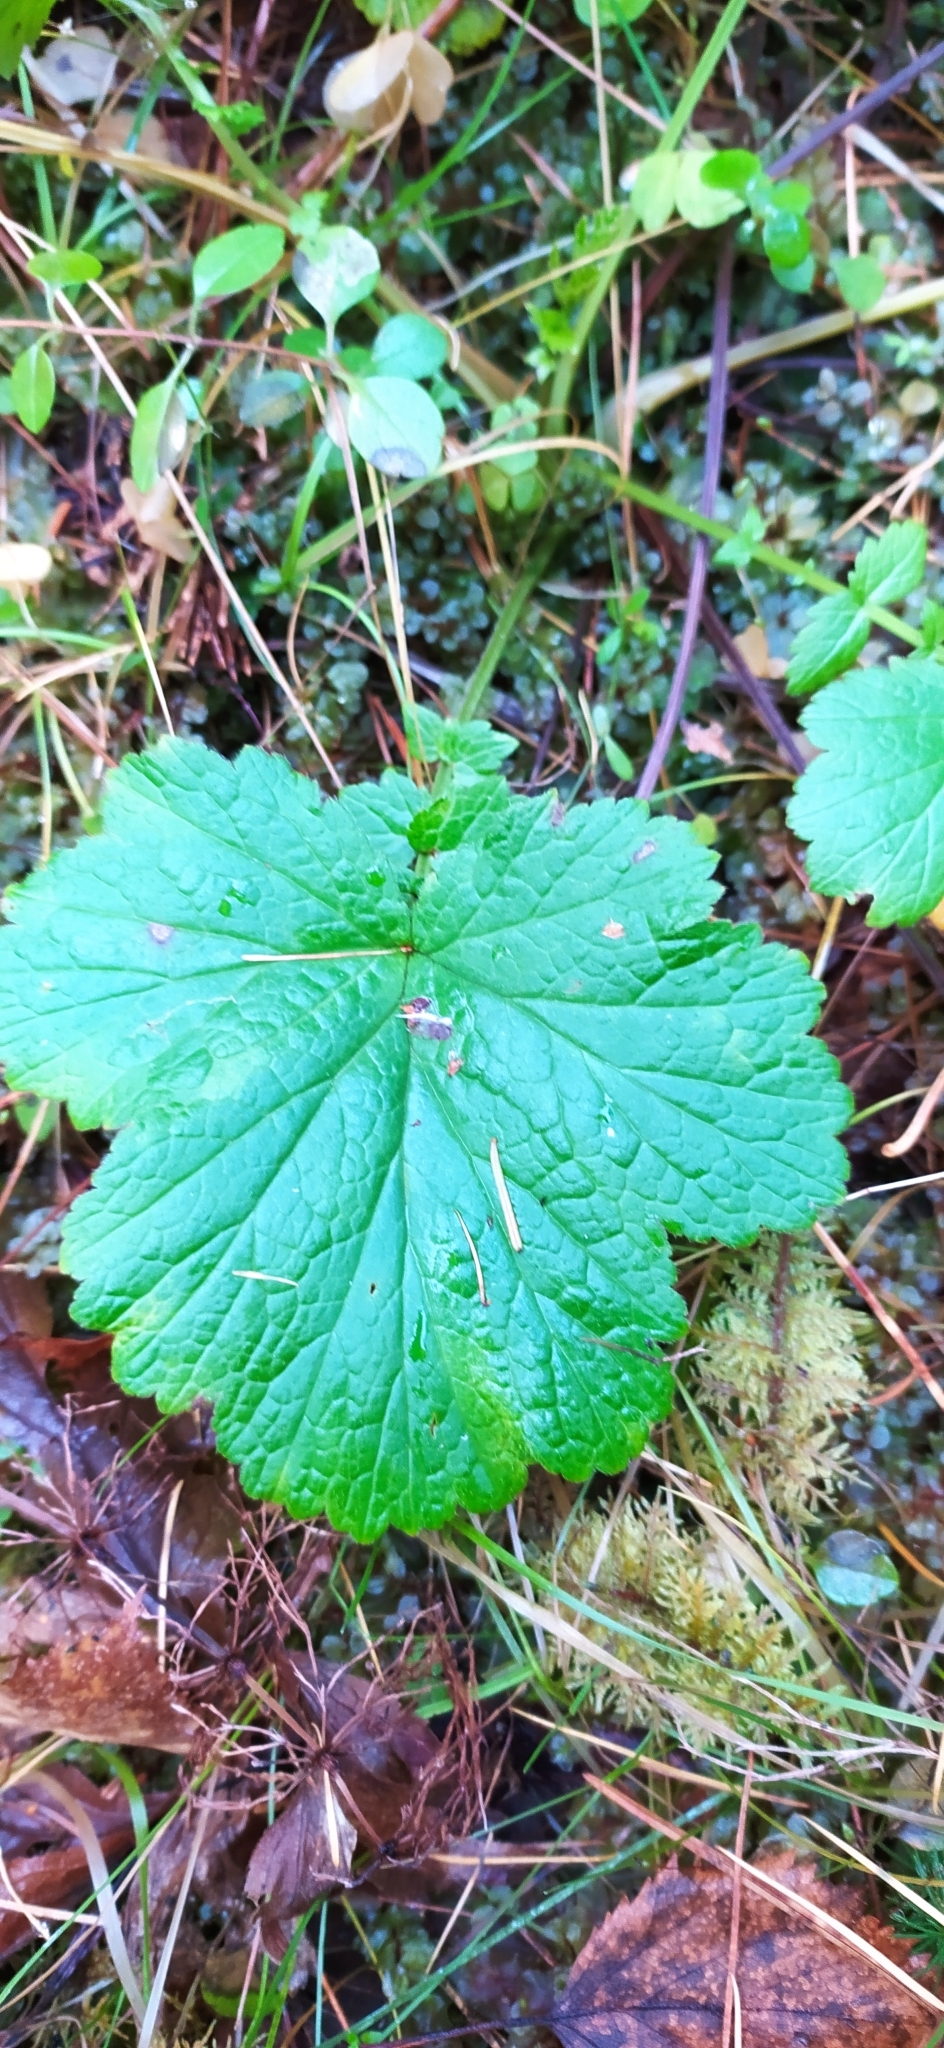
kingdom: Plantae
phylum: Tracheophyta
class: Magnoliopsida
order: Rosales
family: Rosaceae
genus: Geum
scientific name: Geum rivale
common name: Water avens
